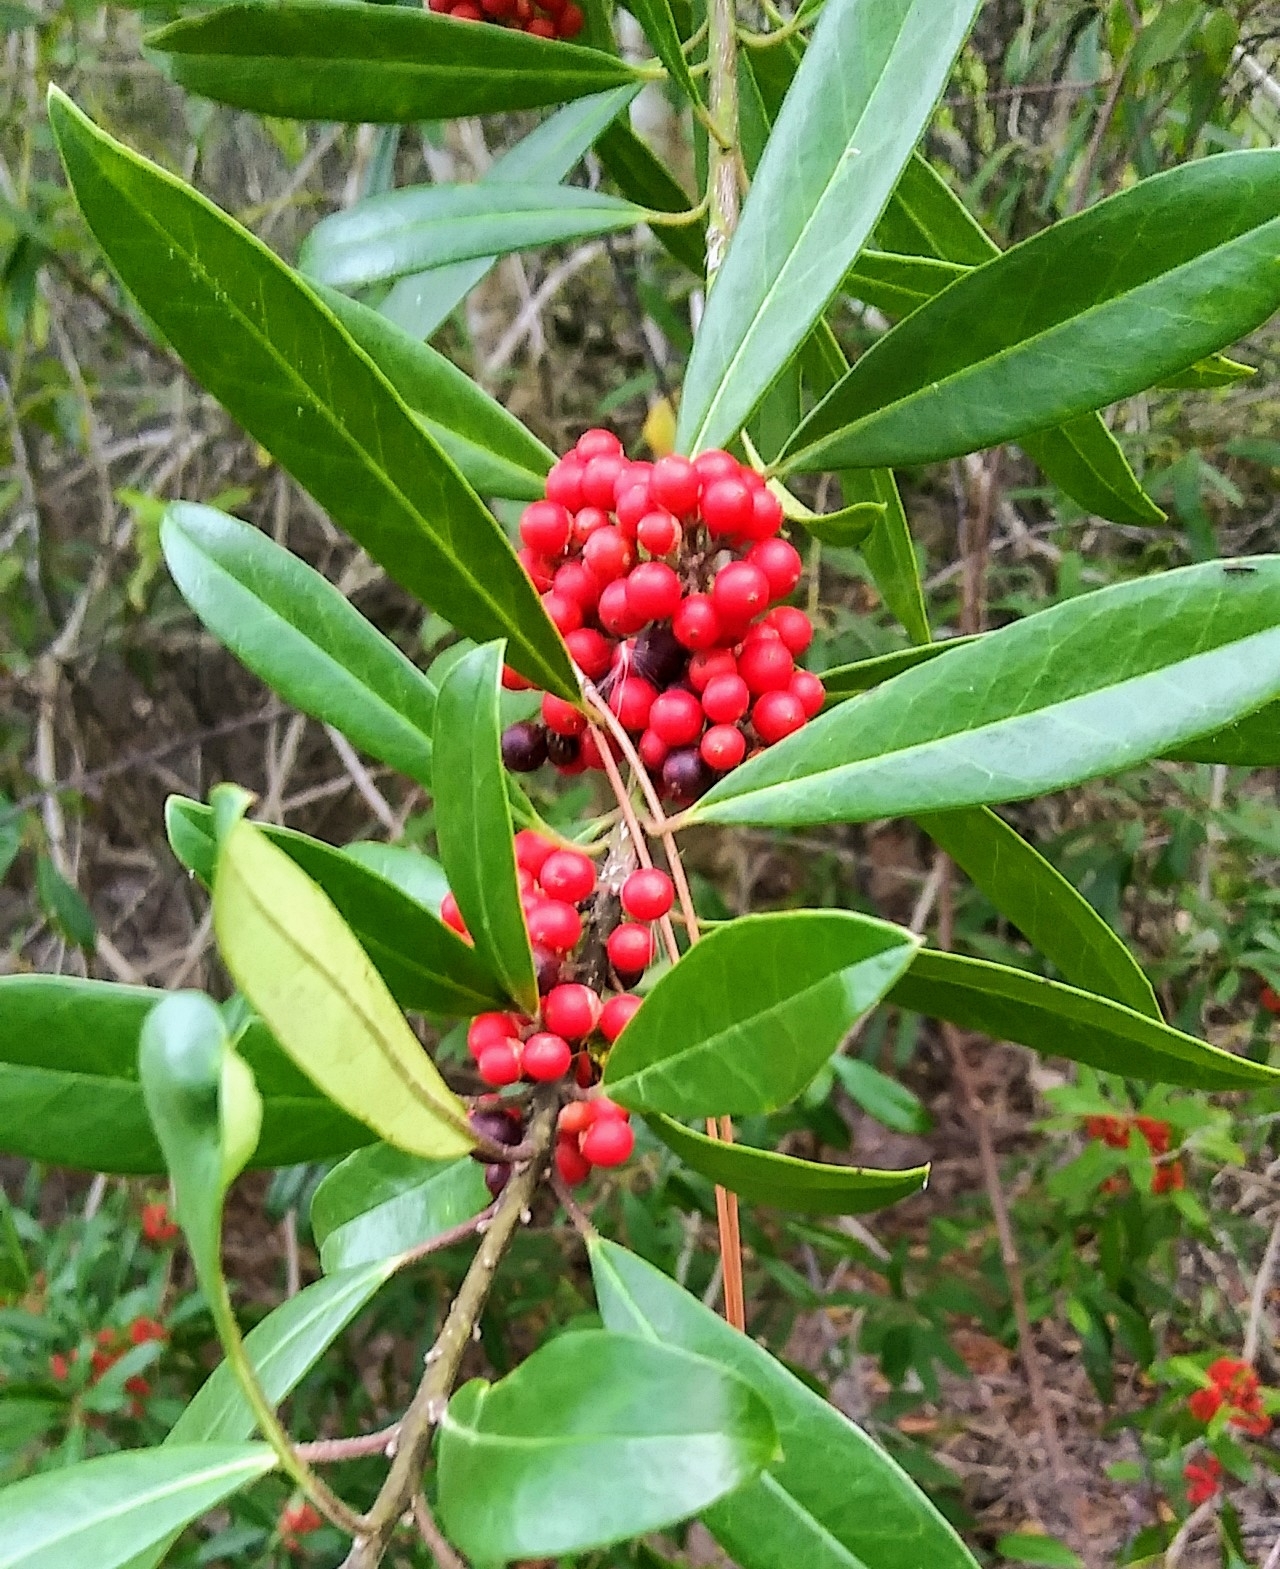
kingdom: Plantae
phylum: Tracheophyta
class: Magnoliopsida
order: Aquifoliales
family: Aquifoliaceae
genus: Ilex
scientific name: Ilex cassine
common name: Dahoon
